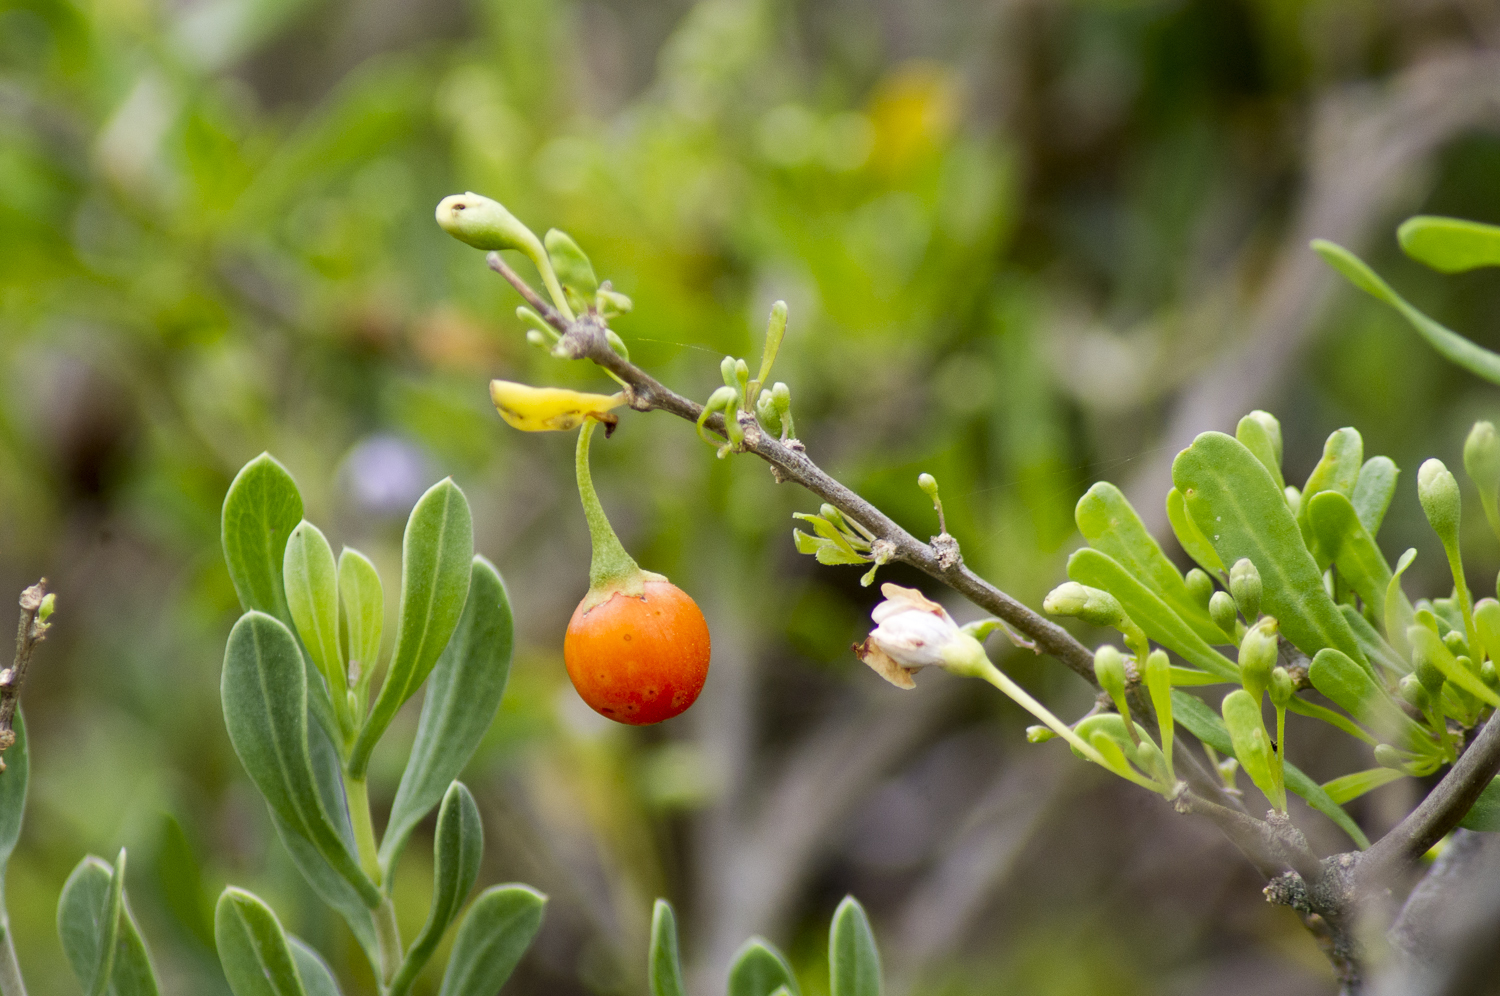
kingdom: Plantae
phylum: Tracheophyta
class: Magnoliopsida
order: Solanales
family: Solanaceae
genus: Lycium
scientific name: Lycium carolinianum
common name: Christmasberry
